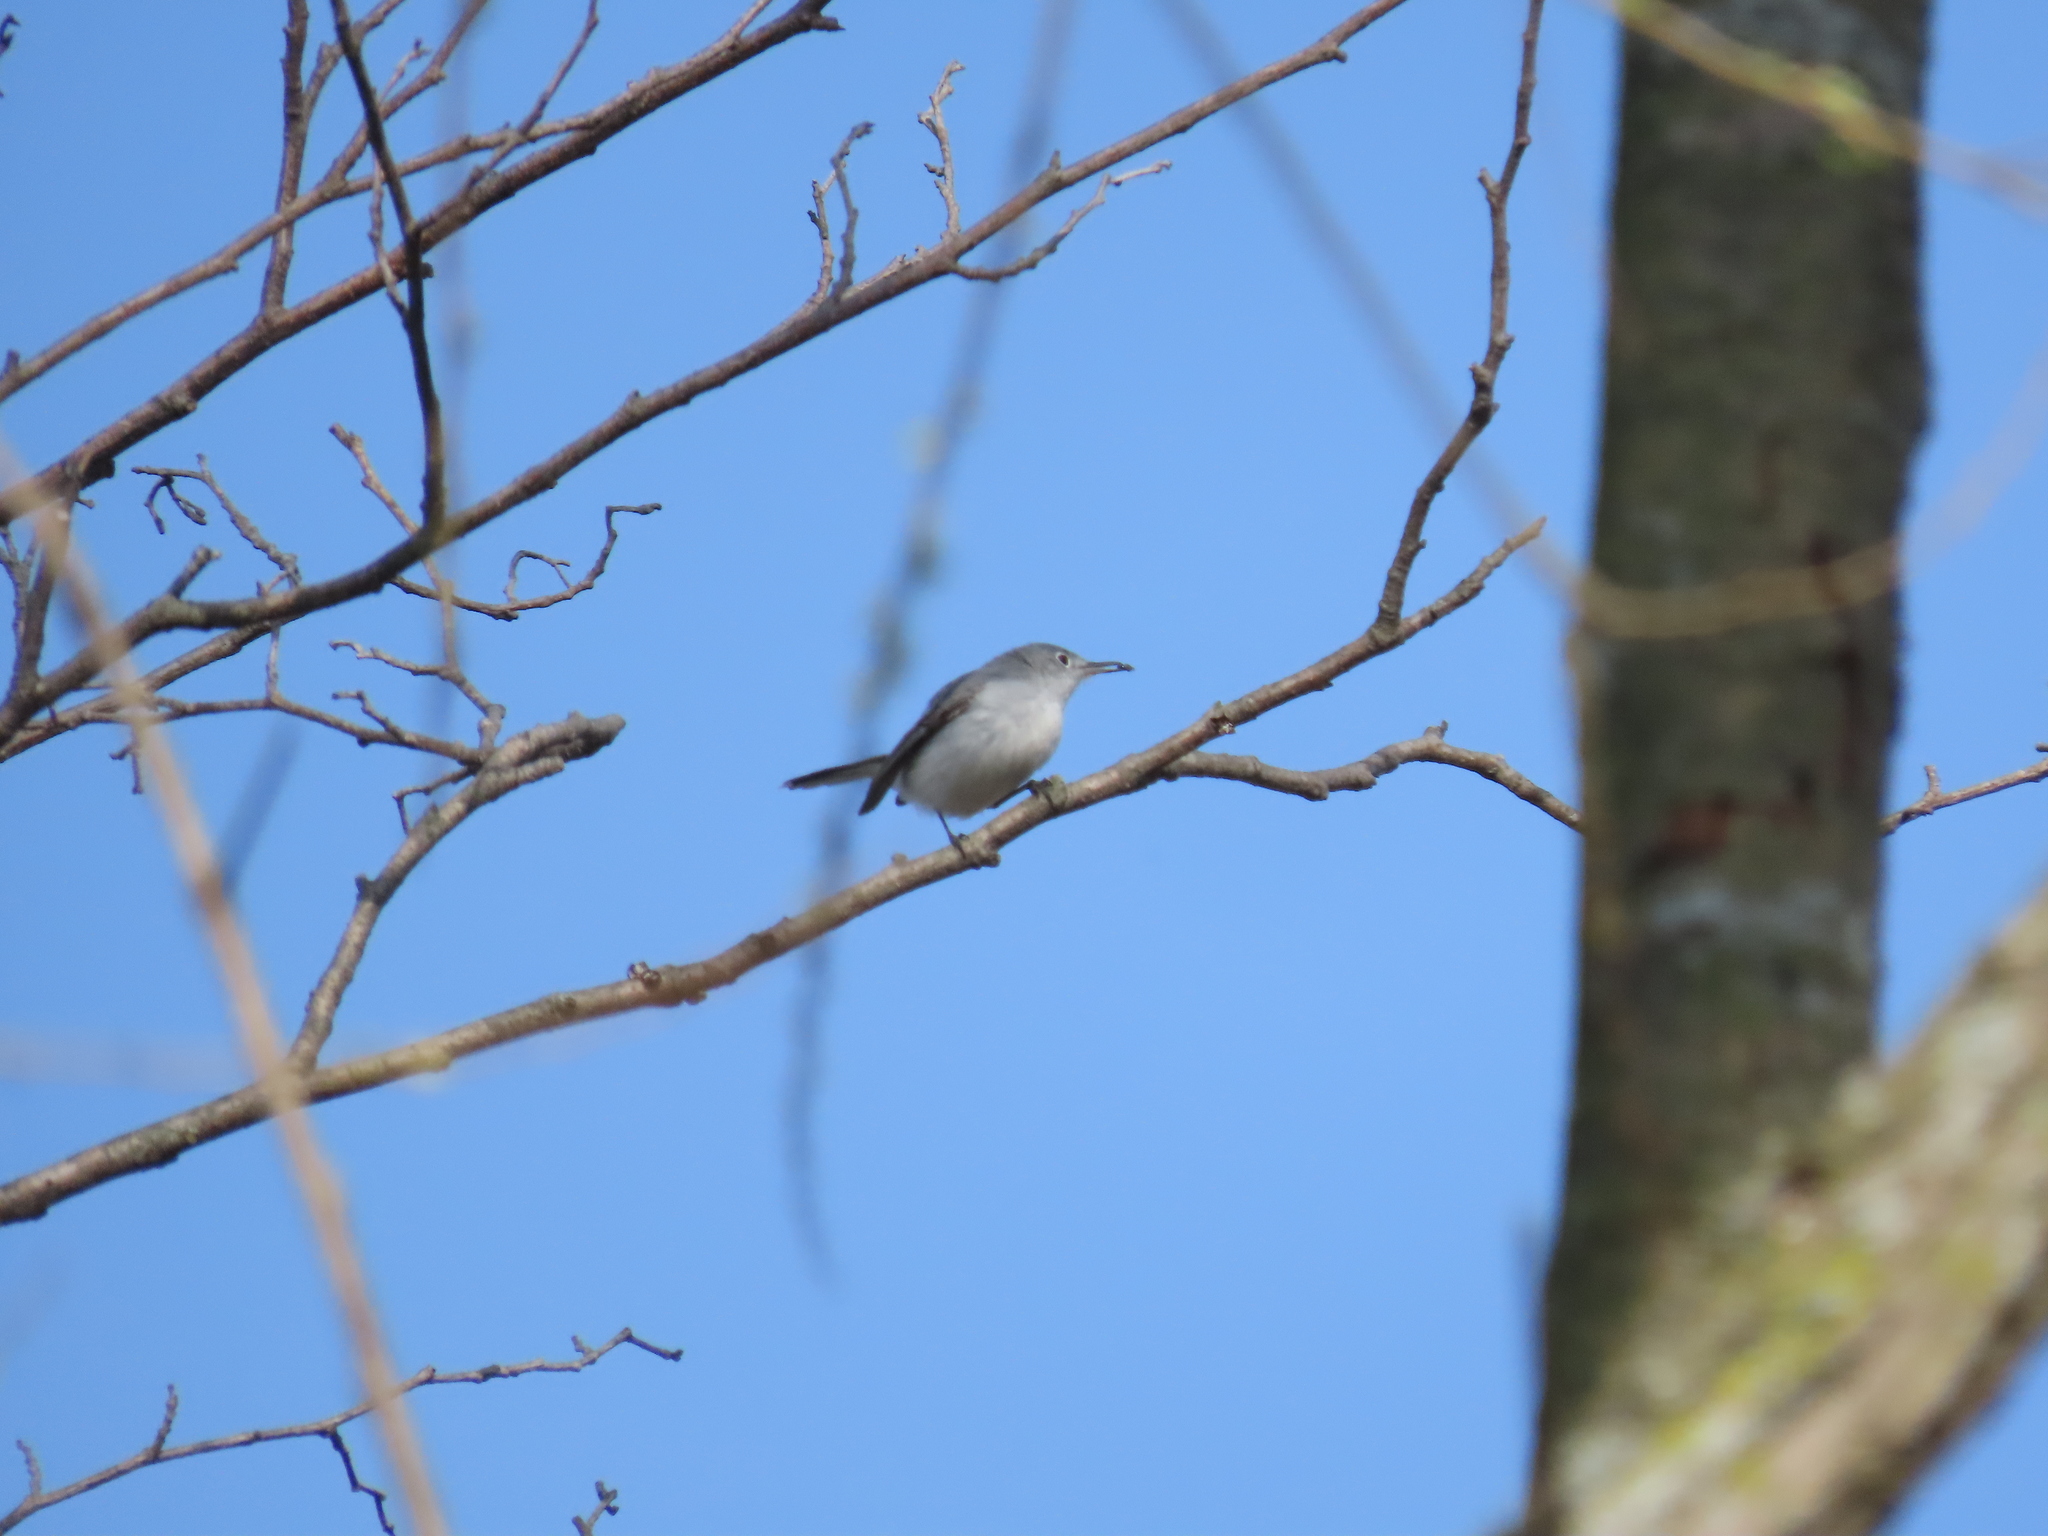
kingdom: Animalia
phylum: Chordata
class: Aves
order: Passeriformes
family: Polioptilidae
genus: Polioptila
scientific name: Polioptila caerulea
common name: Blue-gray gnatcatcher
